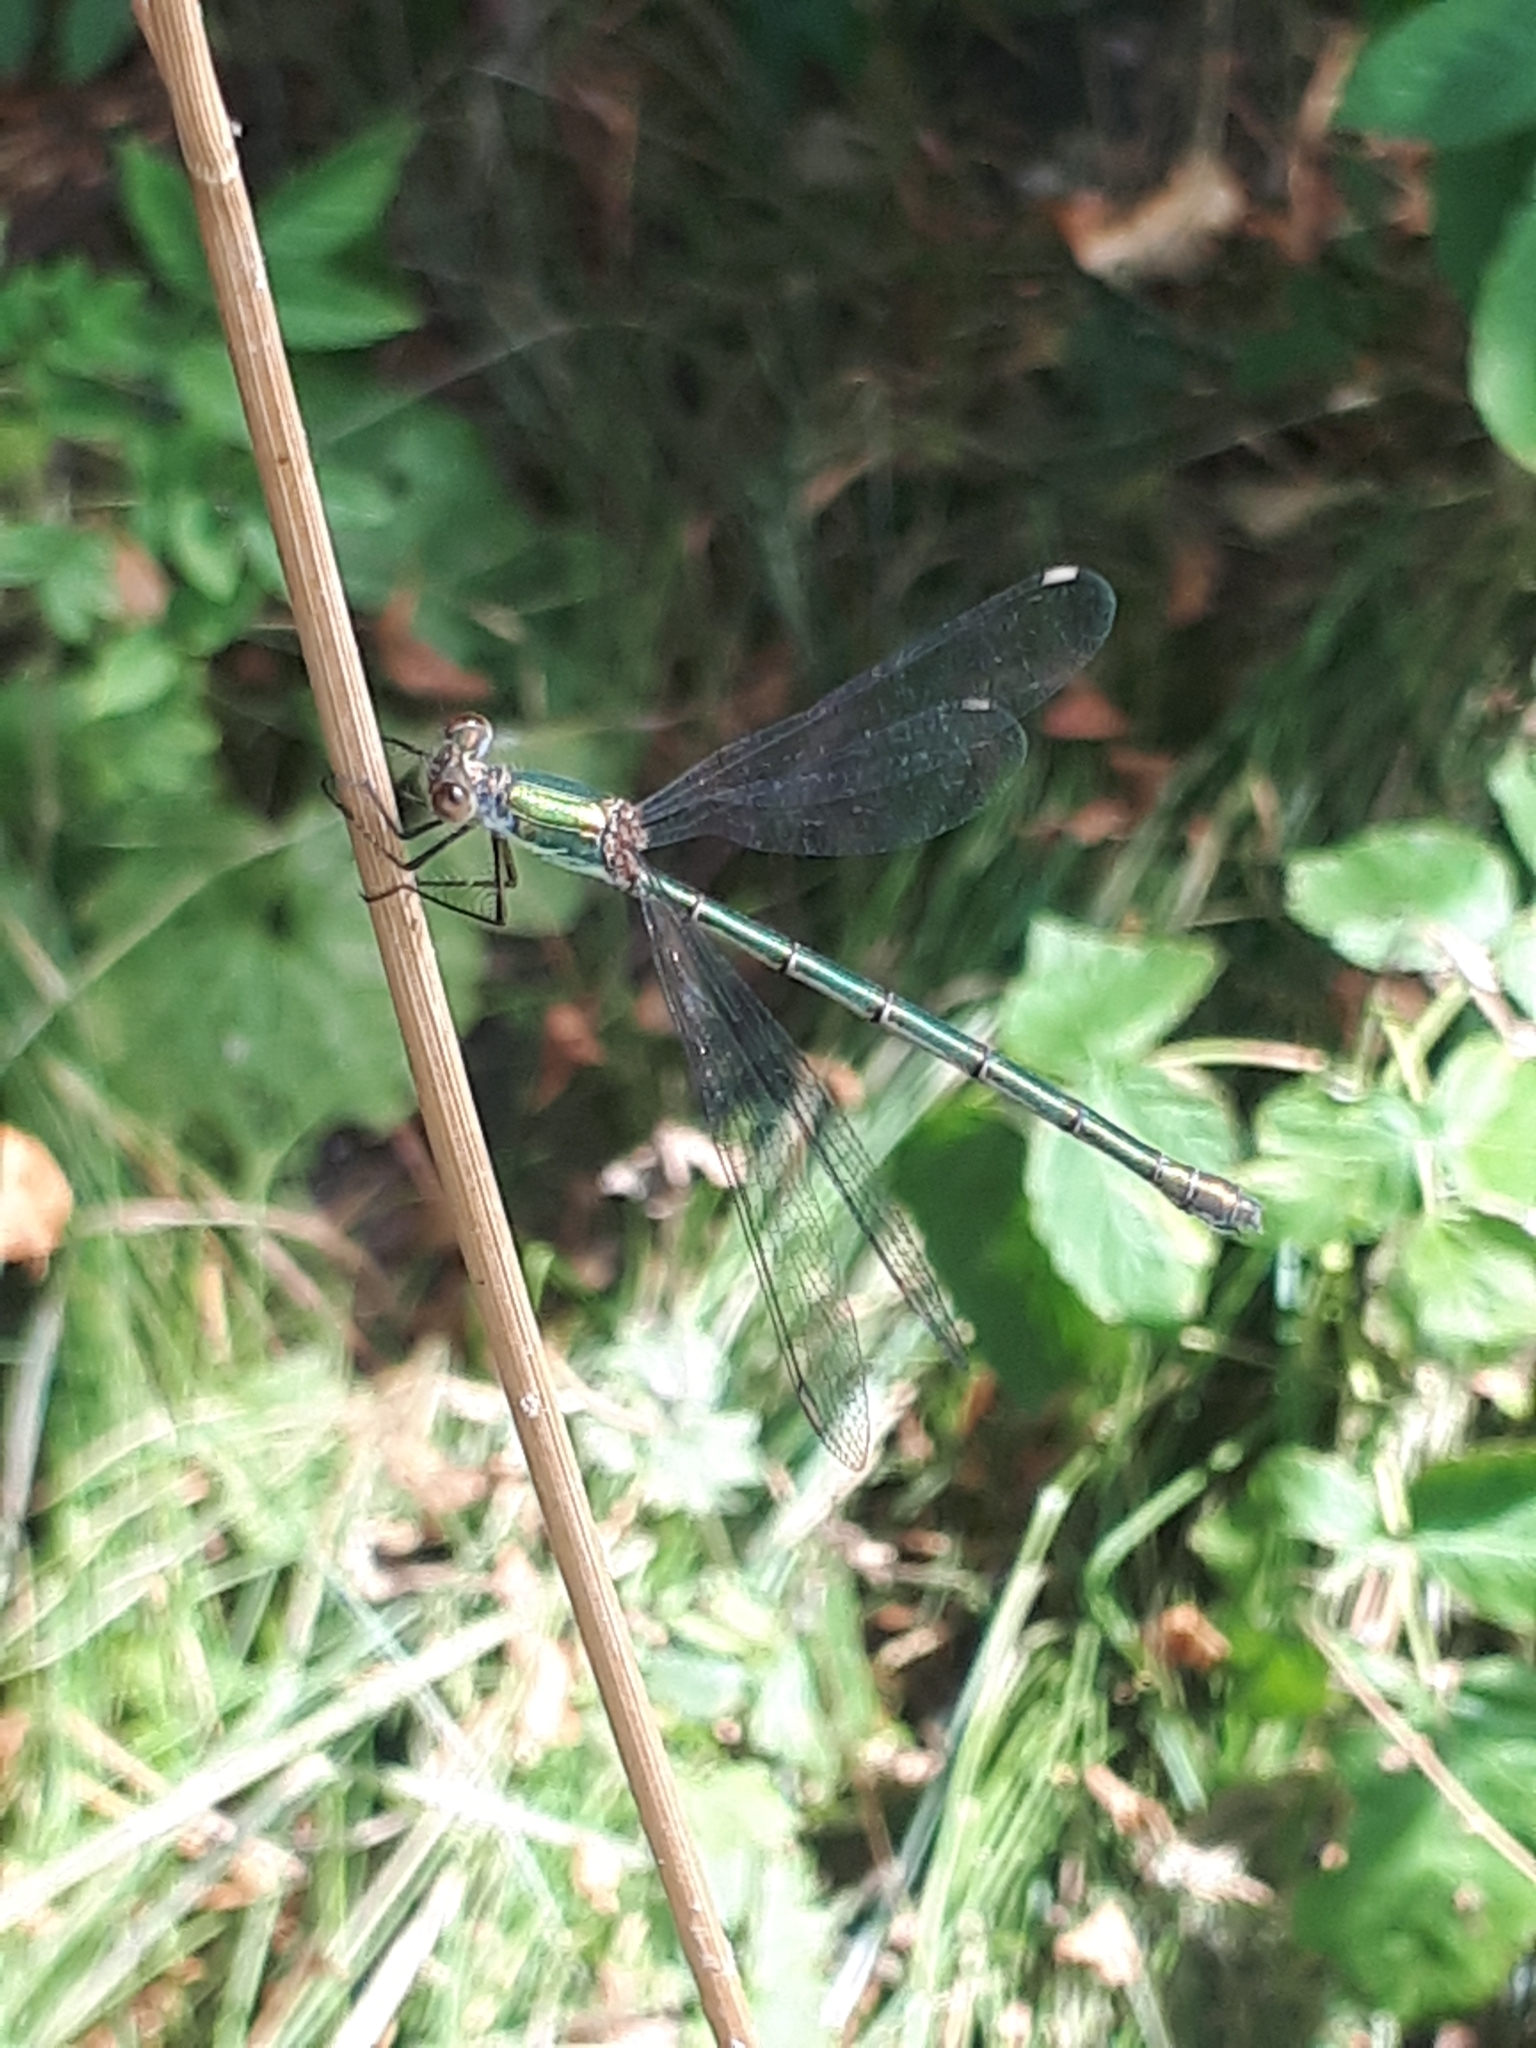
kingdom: Animalia
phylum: Arthropoda
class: Insecta
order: Odonata
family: Lestidae
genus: Chalcolestes
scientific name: Chalcolestes viridis
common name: Green emerald damselfly
